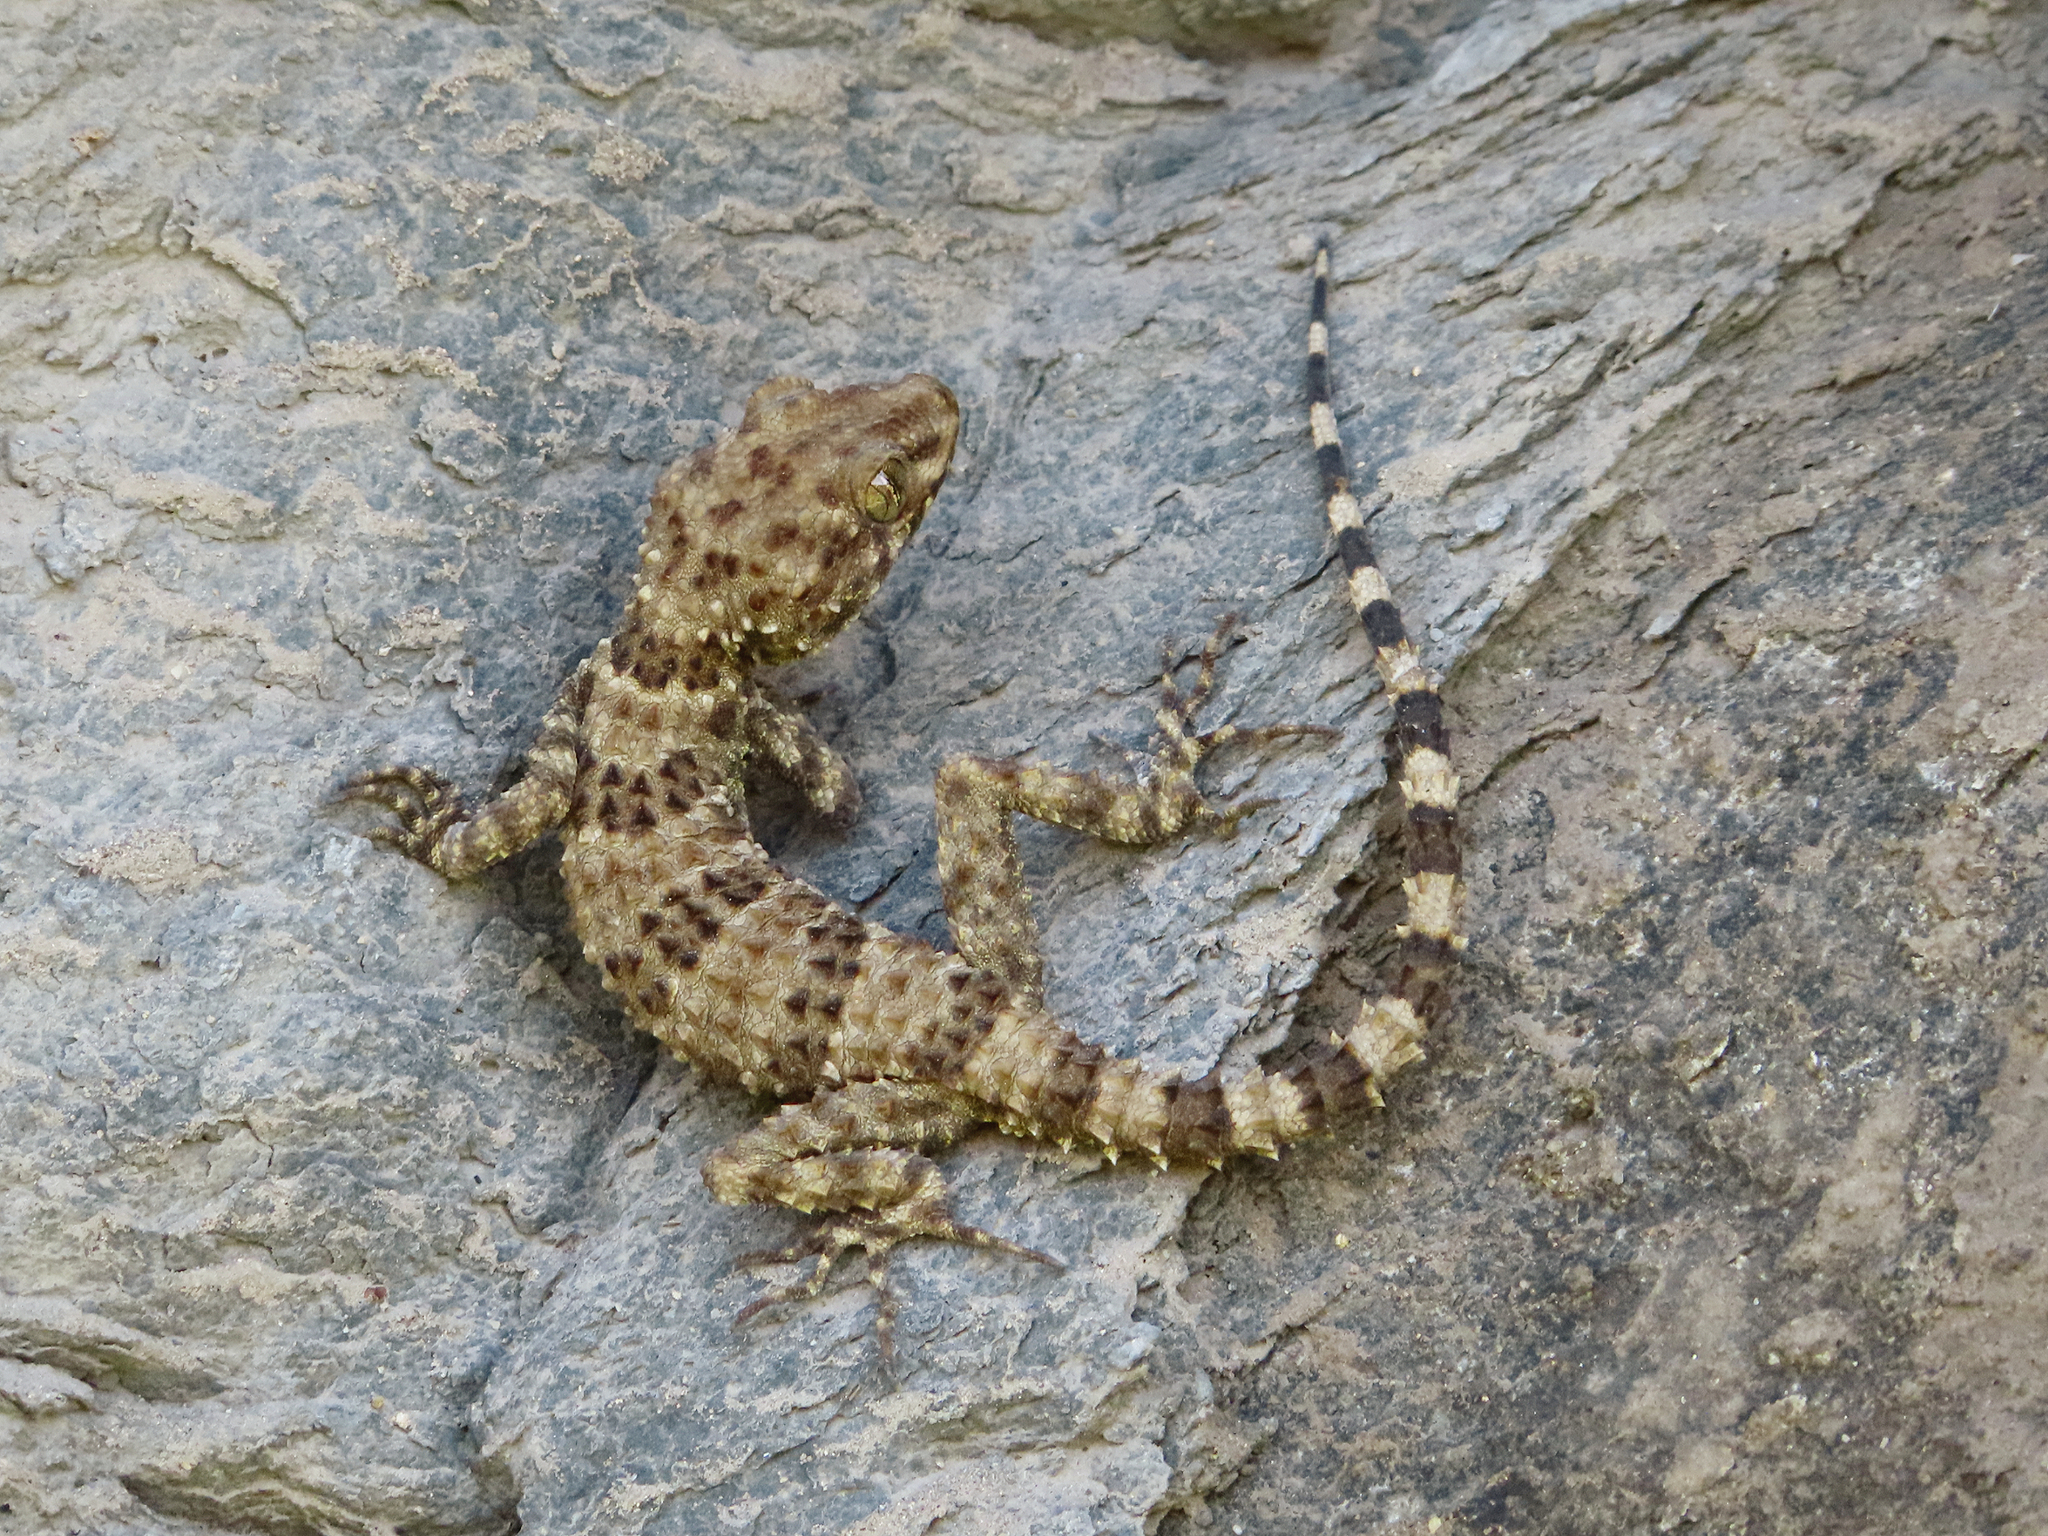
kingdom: Animalia
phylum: Chordata
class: Squamata
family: Gekkonidae
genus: Tenuidactylus
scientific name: Tenuidactylus caspius
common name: Caspian bent-toed gecko
